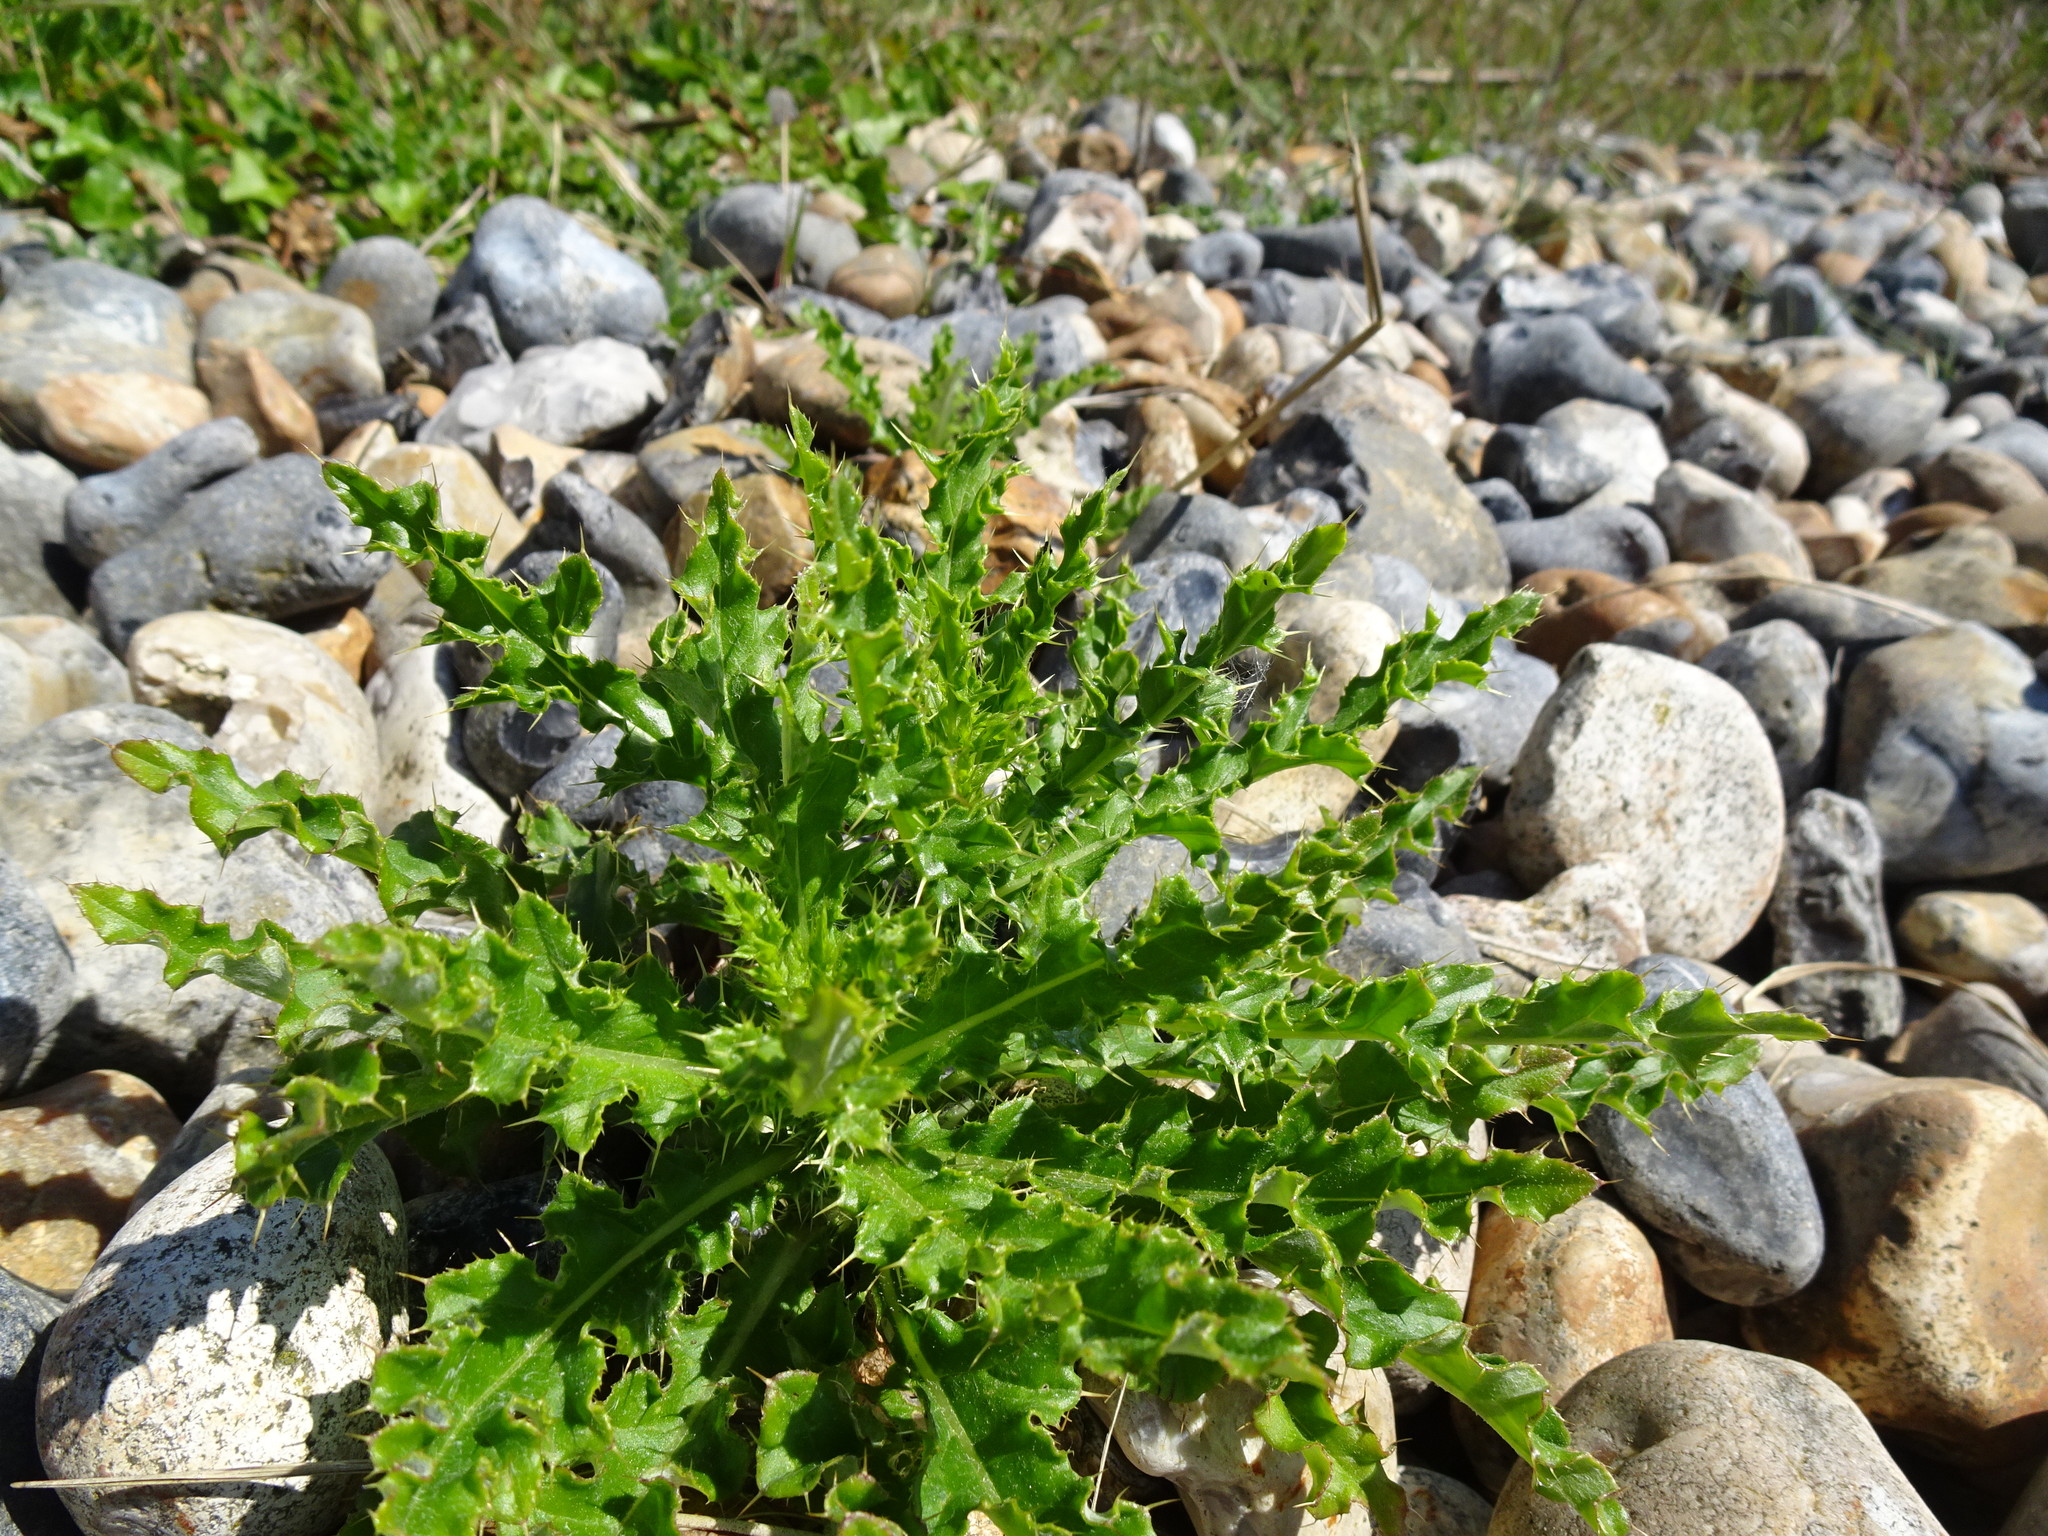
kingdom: Plantae
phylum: Tracheophyta
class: Magnoliopsida
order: Asterales
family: Asteraceae
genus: Cirsium
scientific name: Cirsium arvense
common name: Creeping thistle
